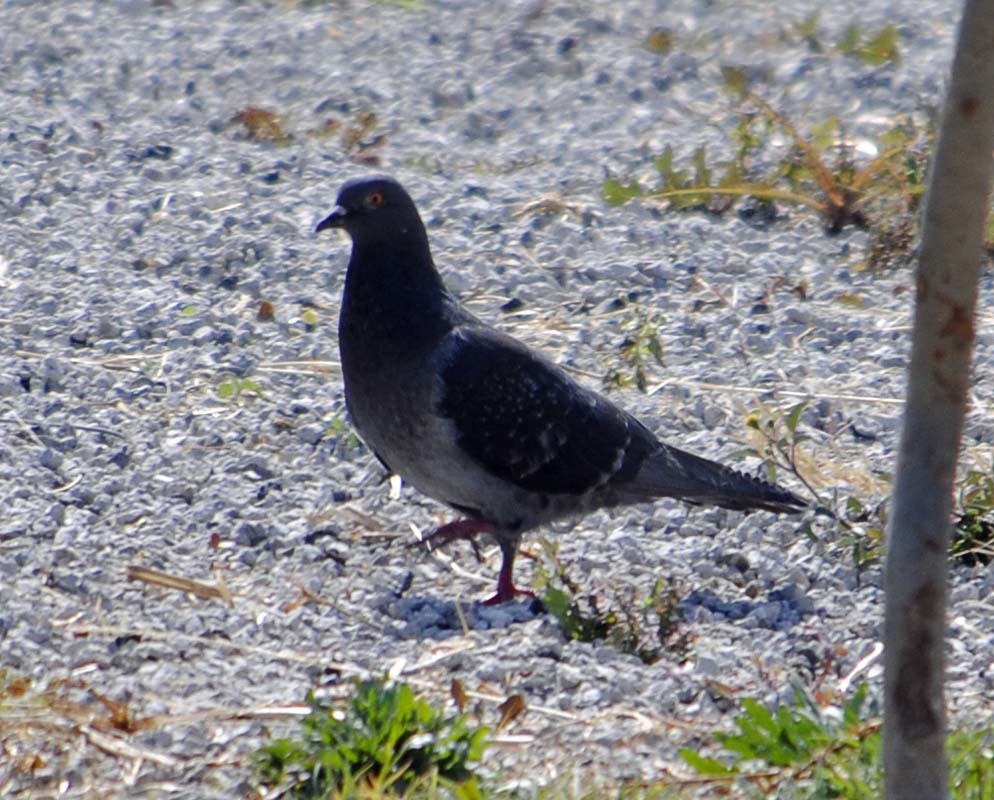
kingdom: Animalia
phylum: Chordata
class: Aves
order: Columbiformes
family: Columbidae
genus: Columba
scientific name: Columba livia
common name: Rock pigeon
